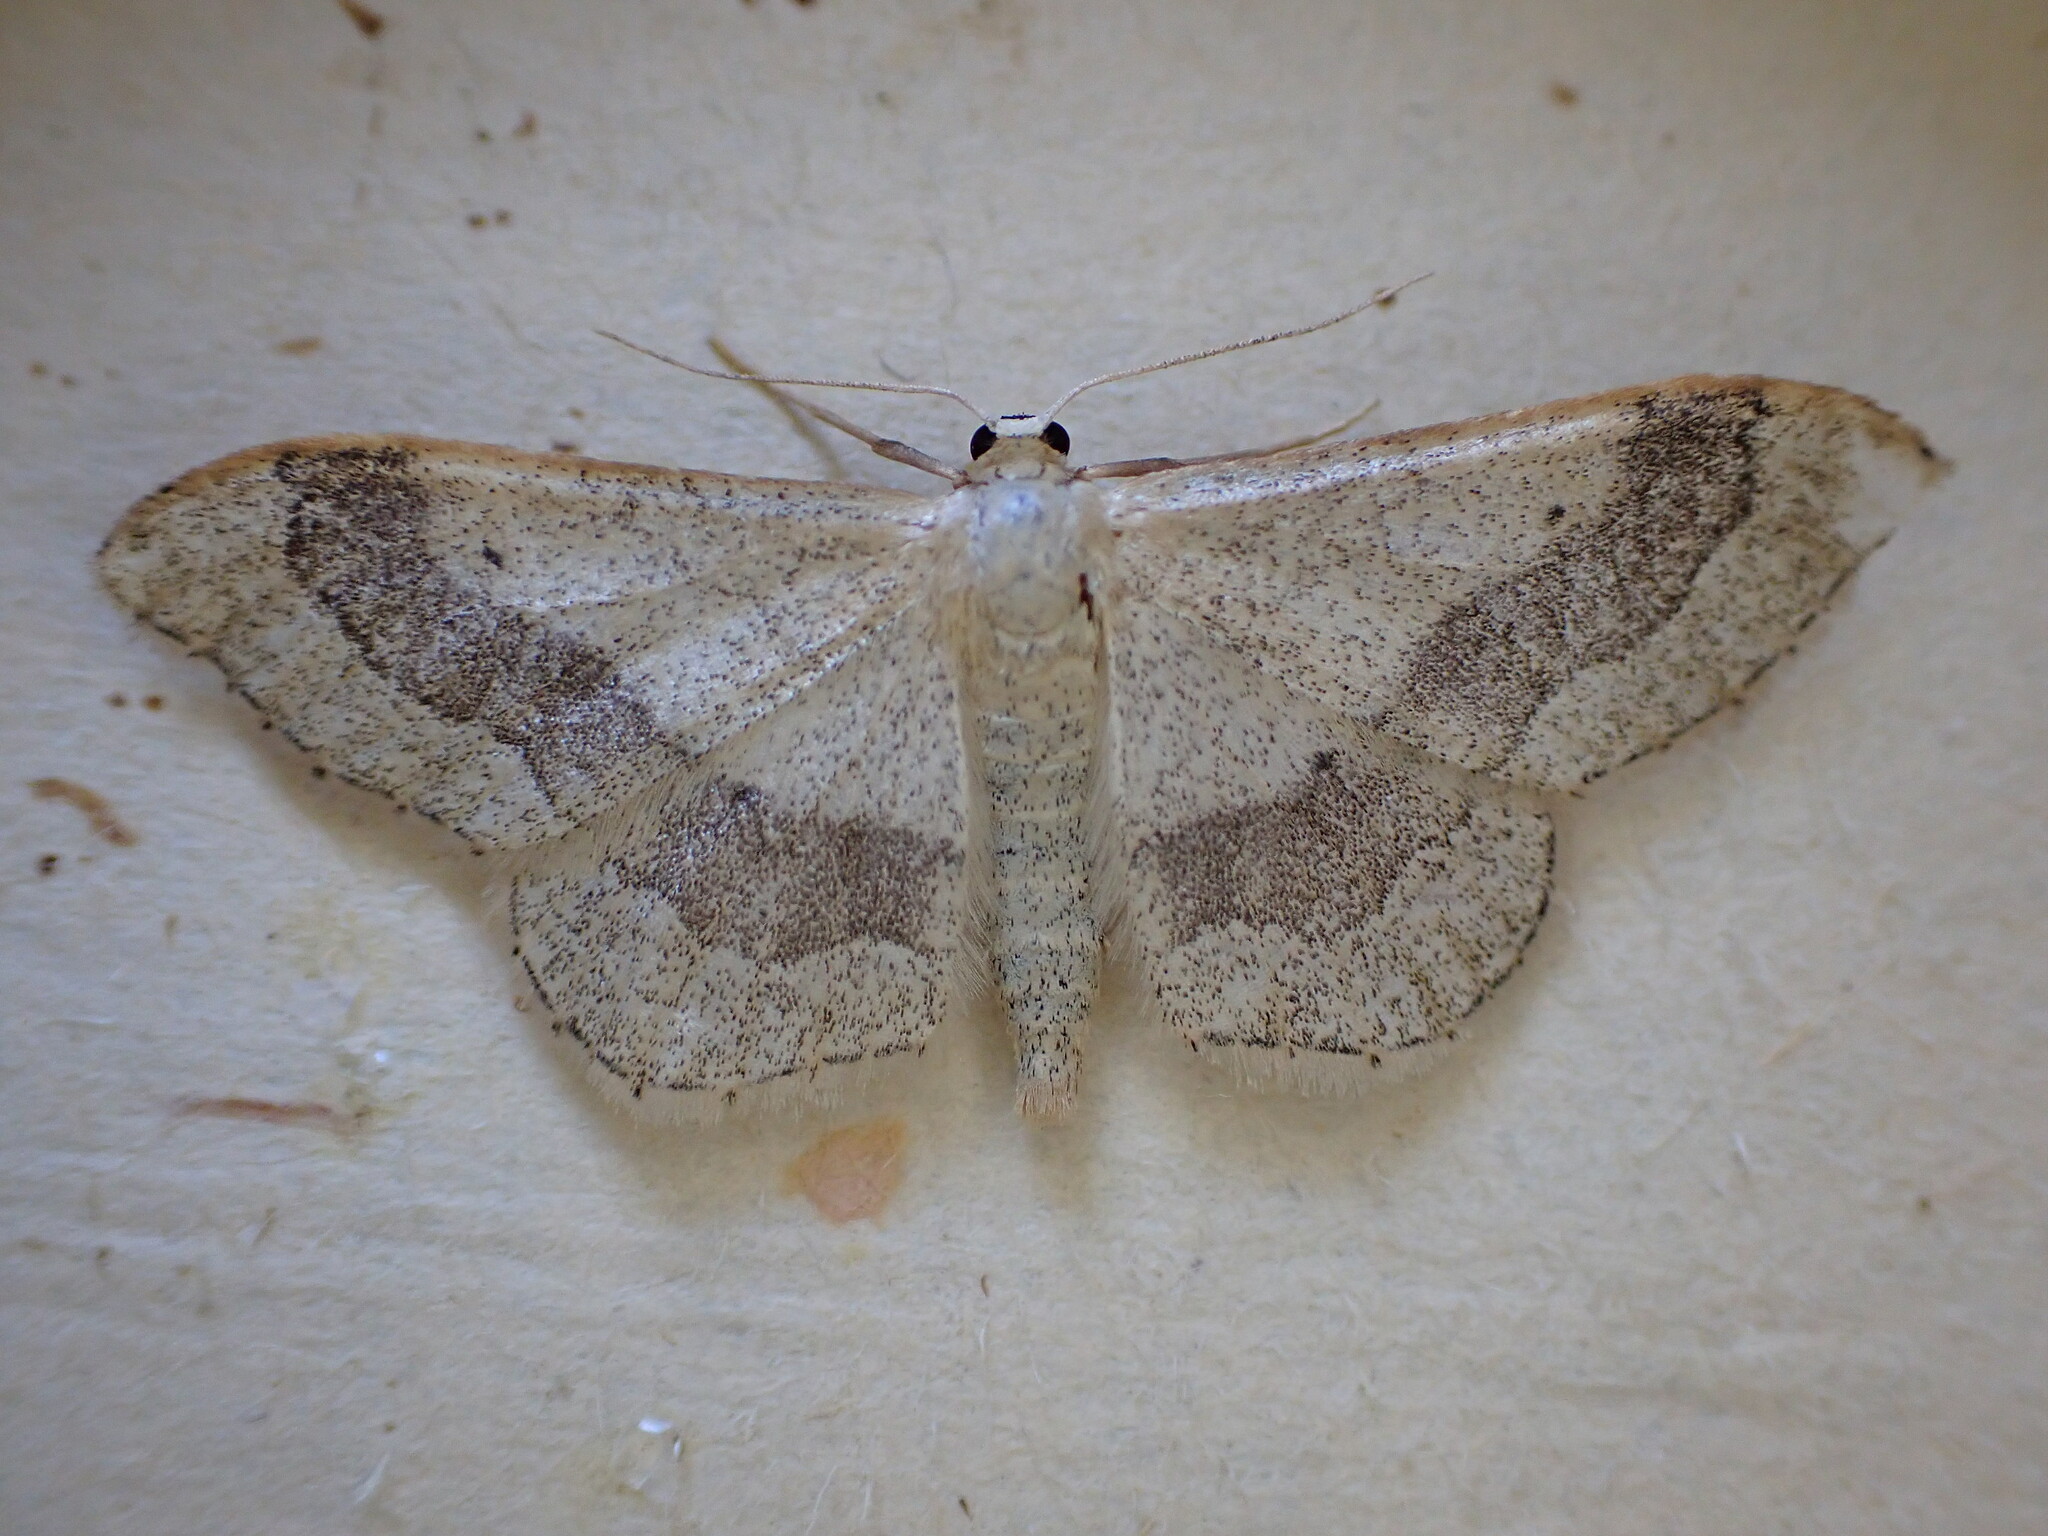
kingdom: Animalia
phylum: Arthropoda
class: Insecta
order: Lepidoptera
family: Geometridae
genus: Idaea
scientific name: Idaea aversata
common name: Riband wave
